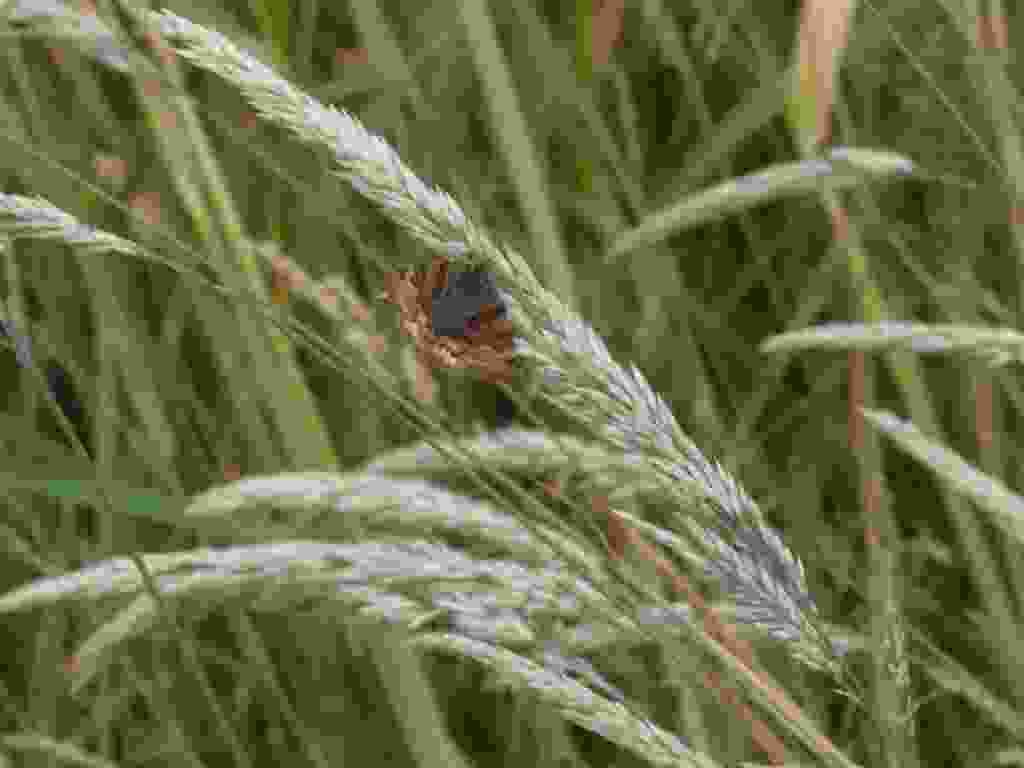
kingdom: Animalia
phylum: Arthropoda
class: Insecta
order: Lepidoptera
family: Erebidae
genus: Euclidia
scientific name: Euclidia glyphica
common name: Burnet companion
